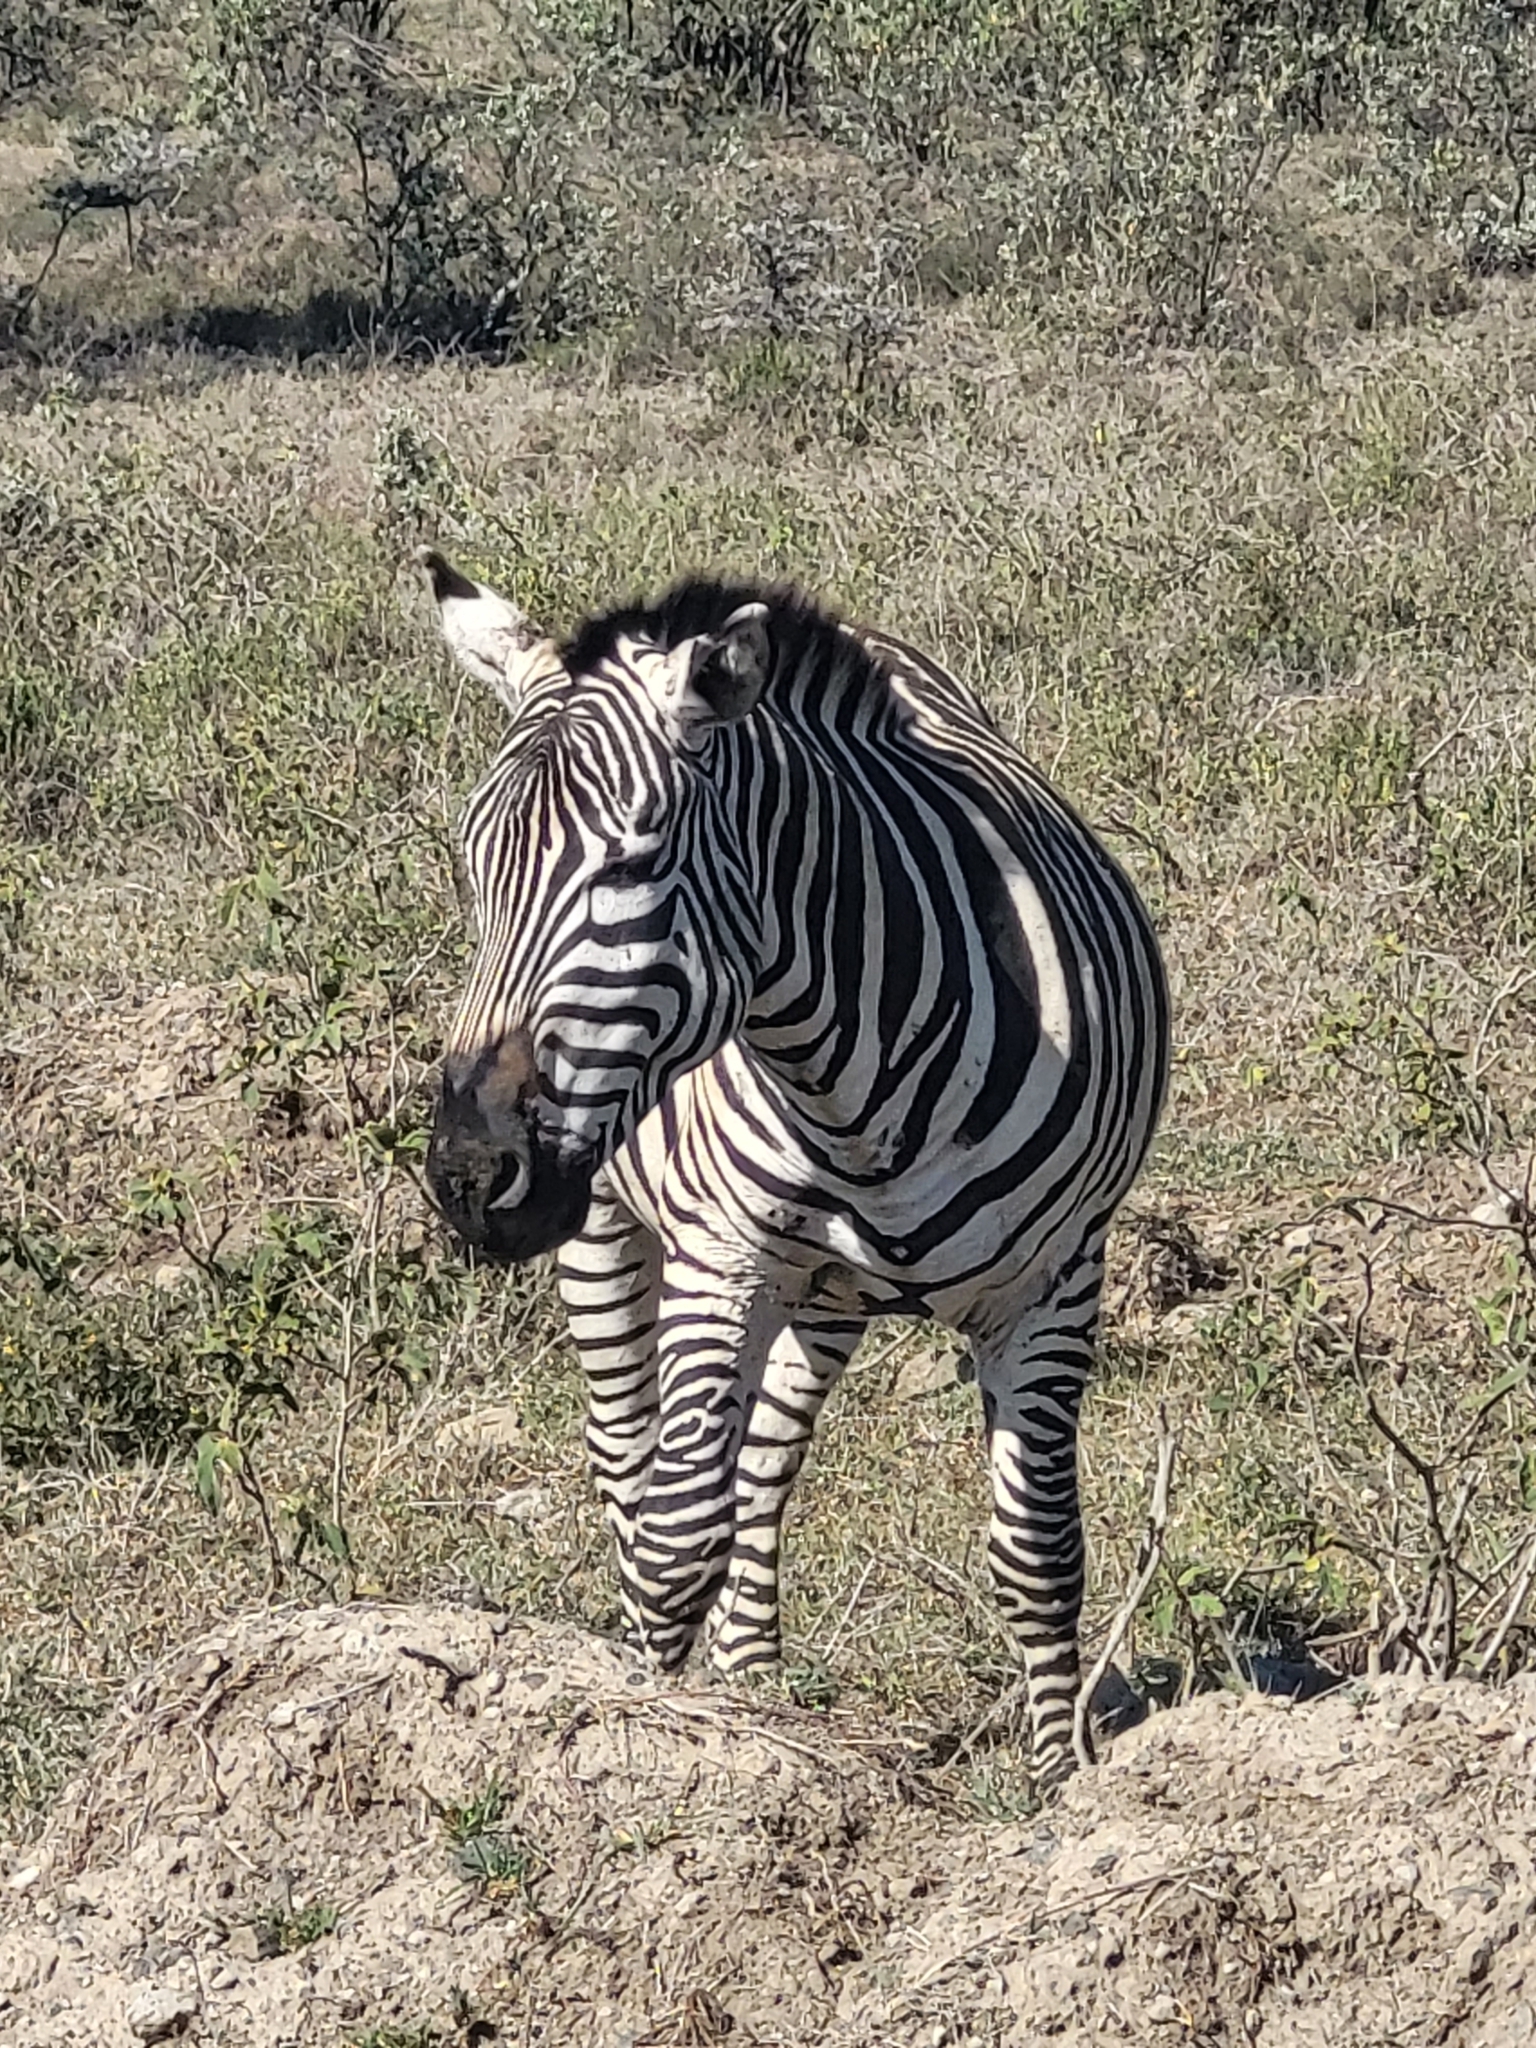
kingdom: Animalia
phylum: Chordata
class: Mammalia
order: Perissodactyla
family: Equidae
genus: Equus
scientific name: Equus quagga
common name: Plains zebra
